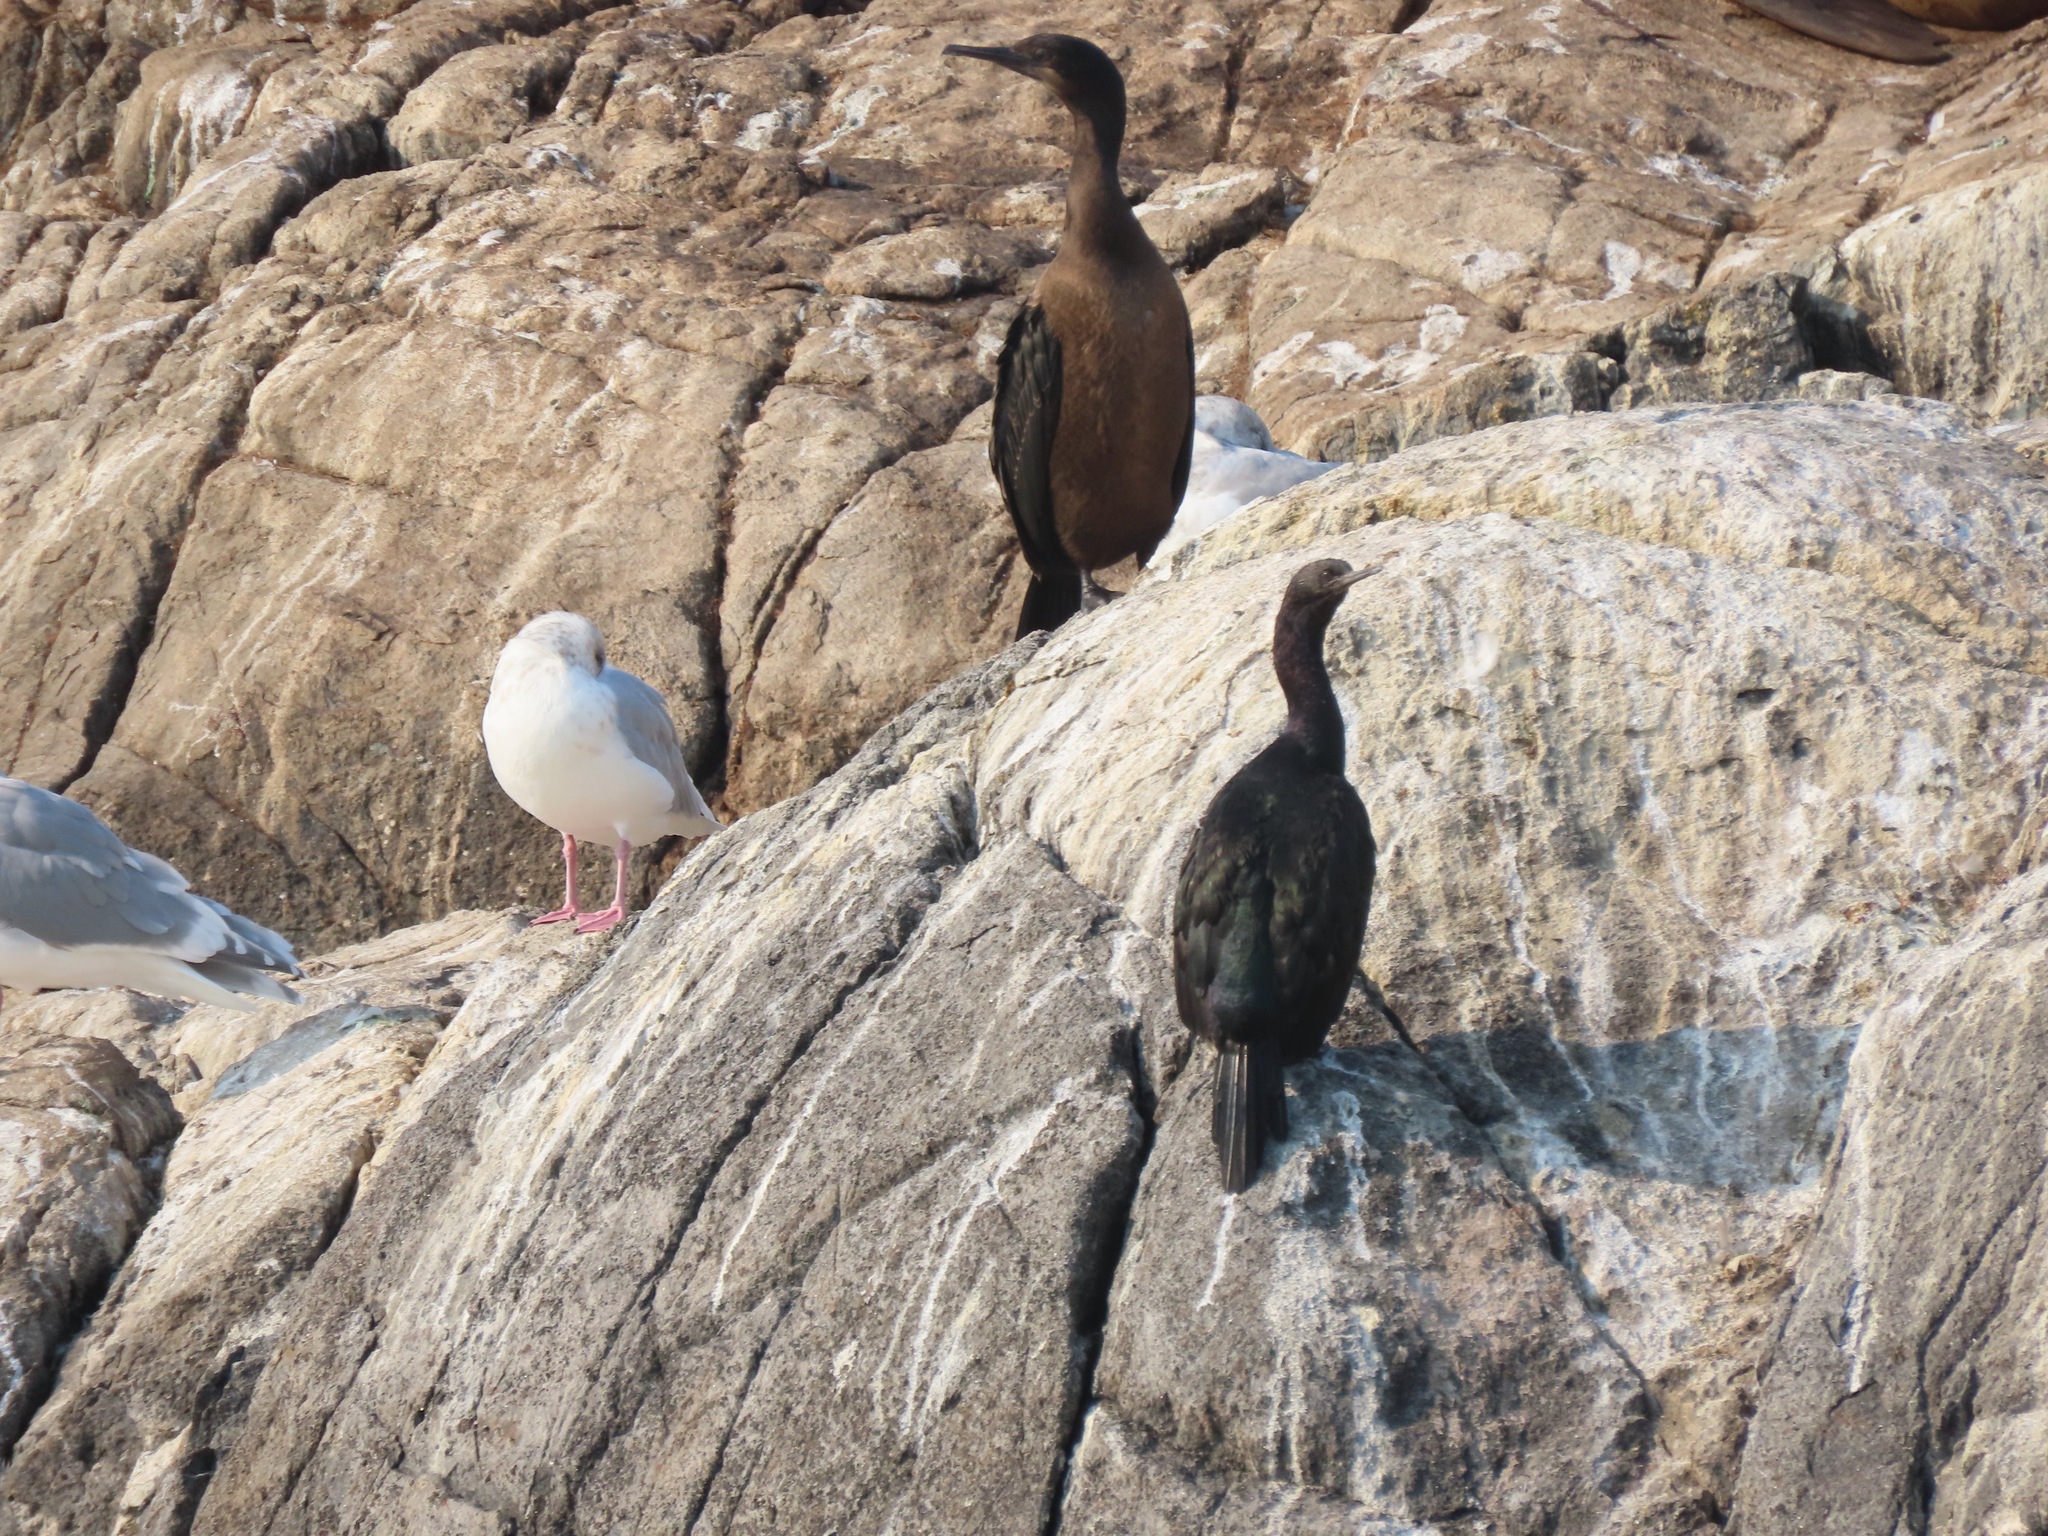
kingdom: Animalia
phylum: Chordata
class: Aves
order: Suliformes
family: Phalacrocoracidae
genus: Phalacrocorax
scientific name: Phalacrocorax pelagicus
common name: Pelagic cormorant
